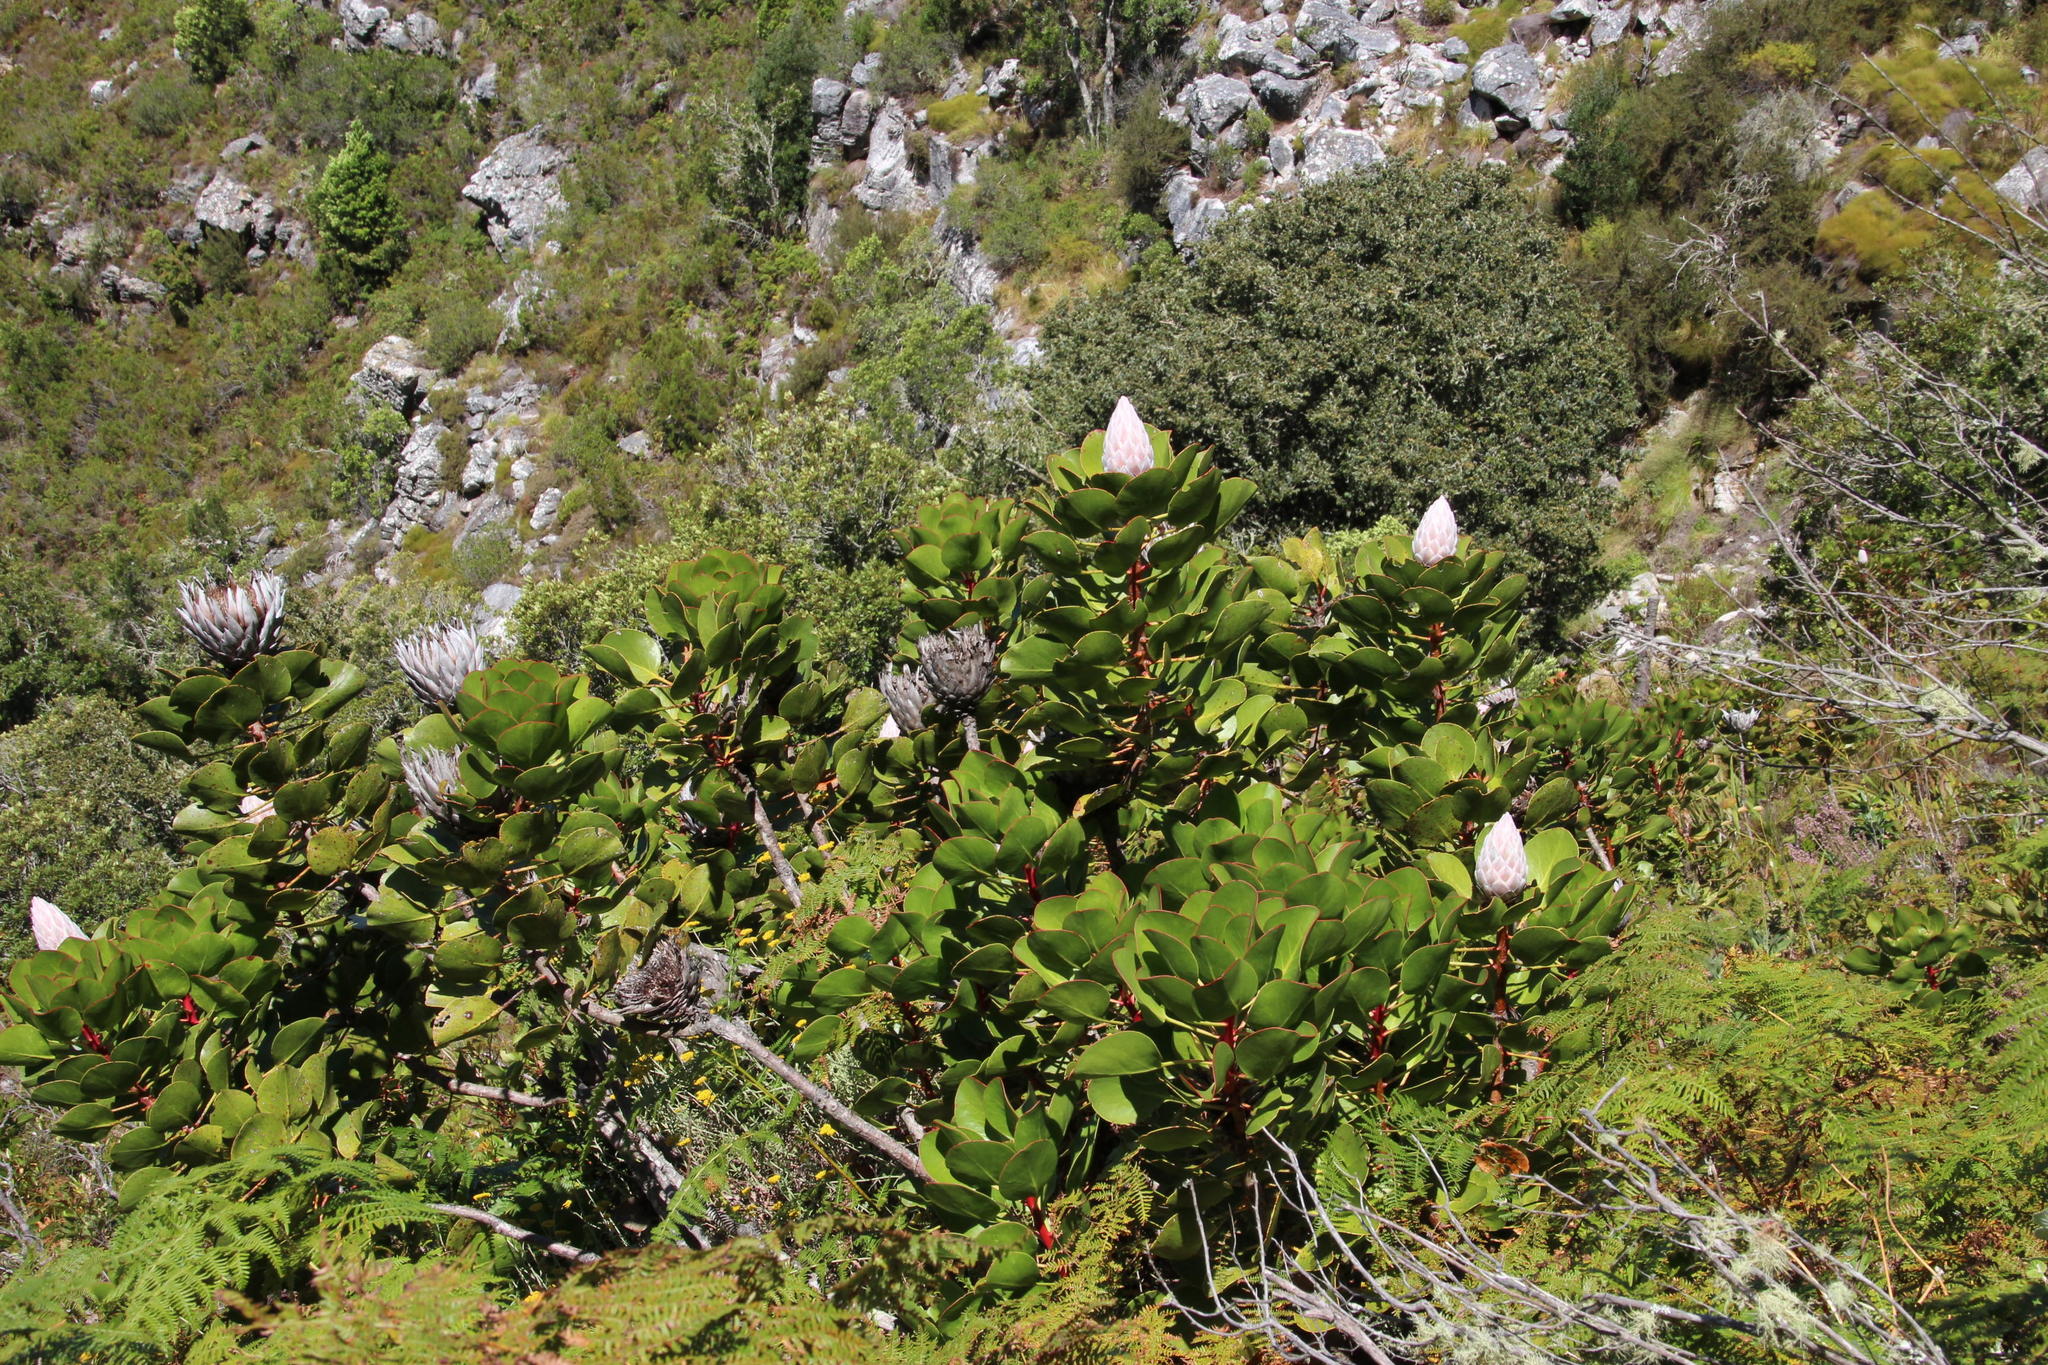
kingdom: Plantae
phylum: Tracheophyta
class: Magnoliopsida
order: Proteales
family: Proteaceae
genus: Protea
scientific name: Protea cynaroides
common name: King protea
